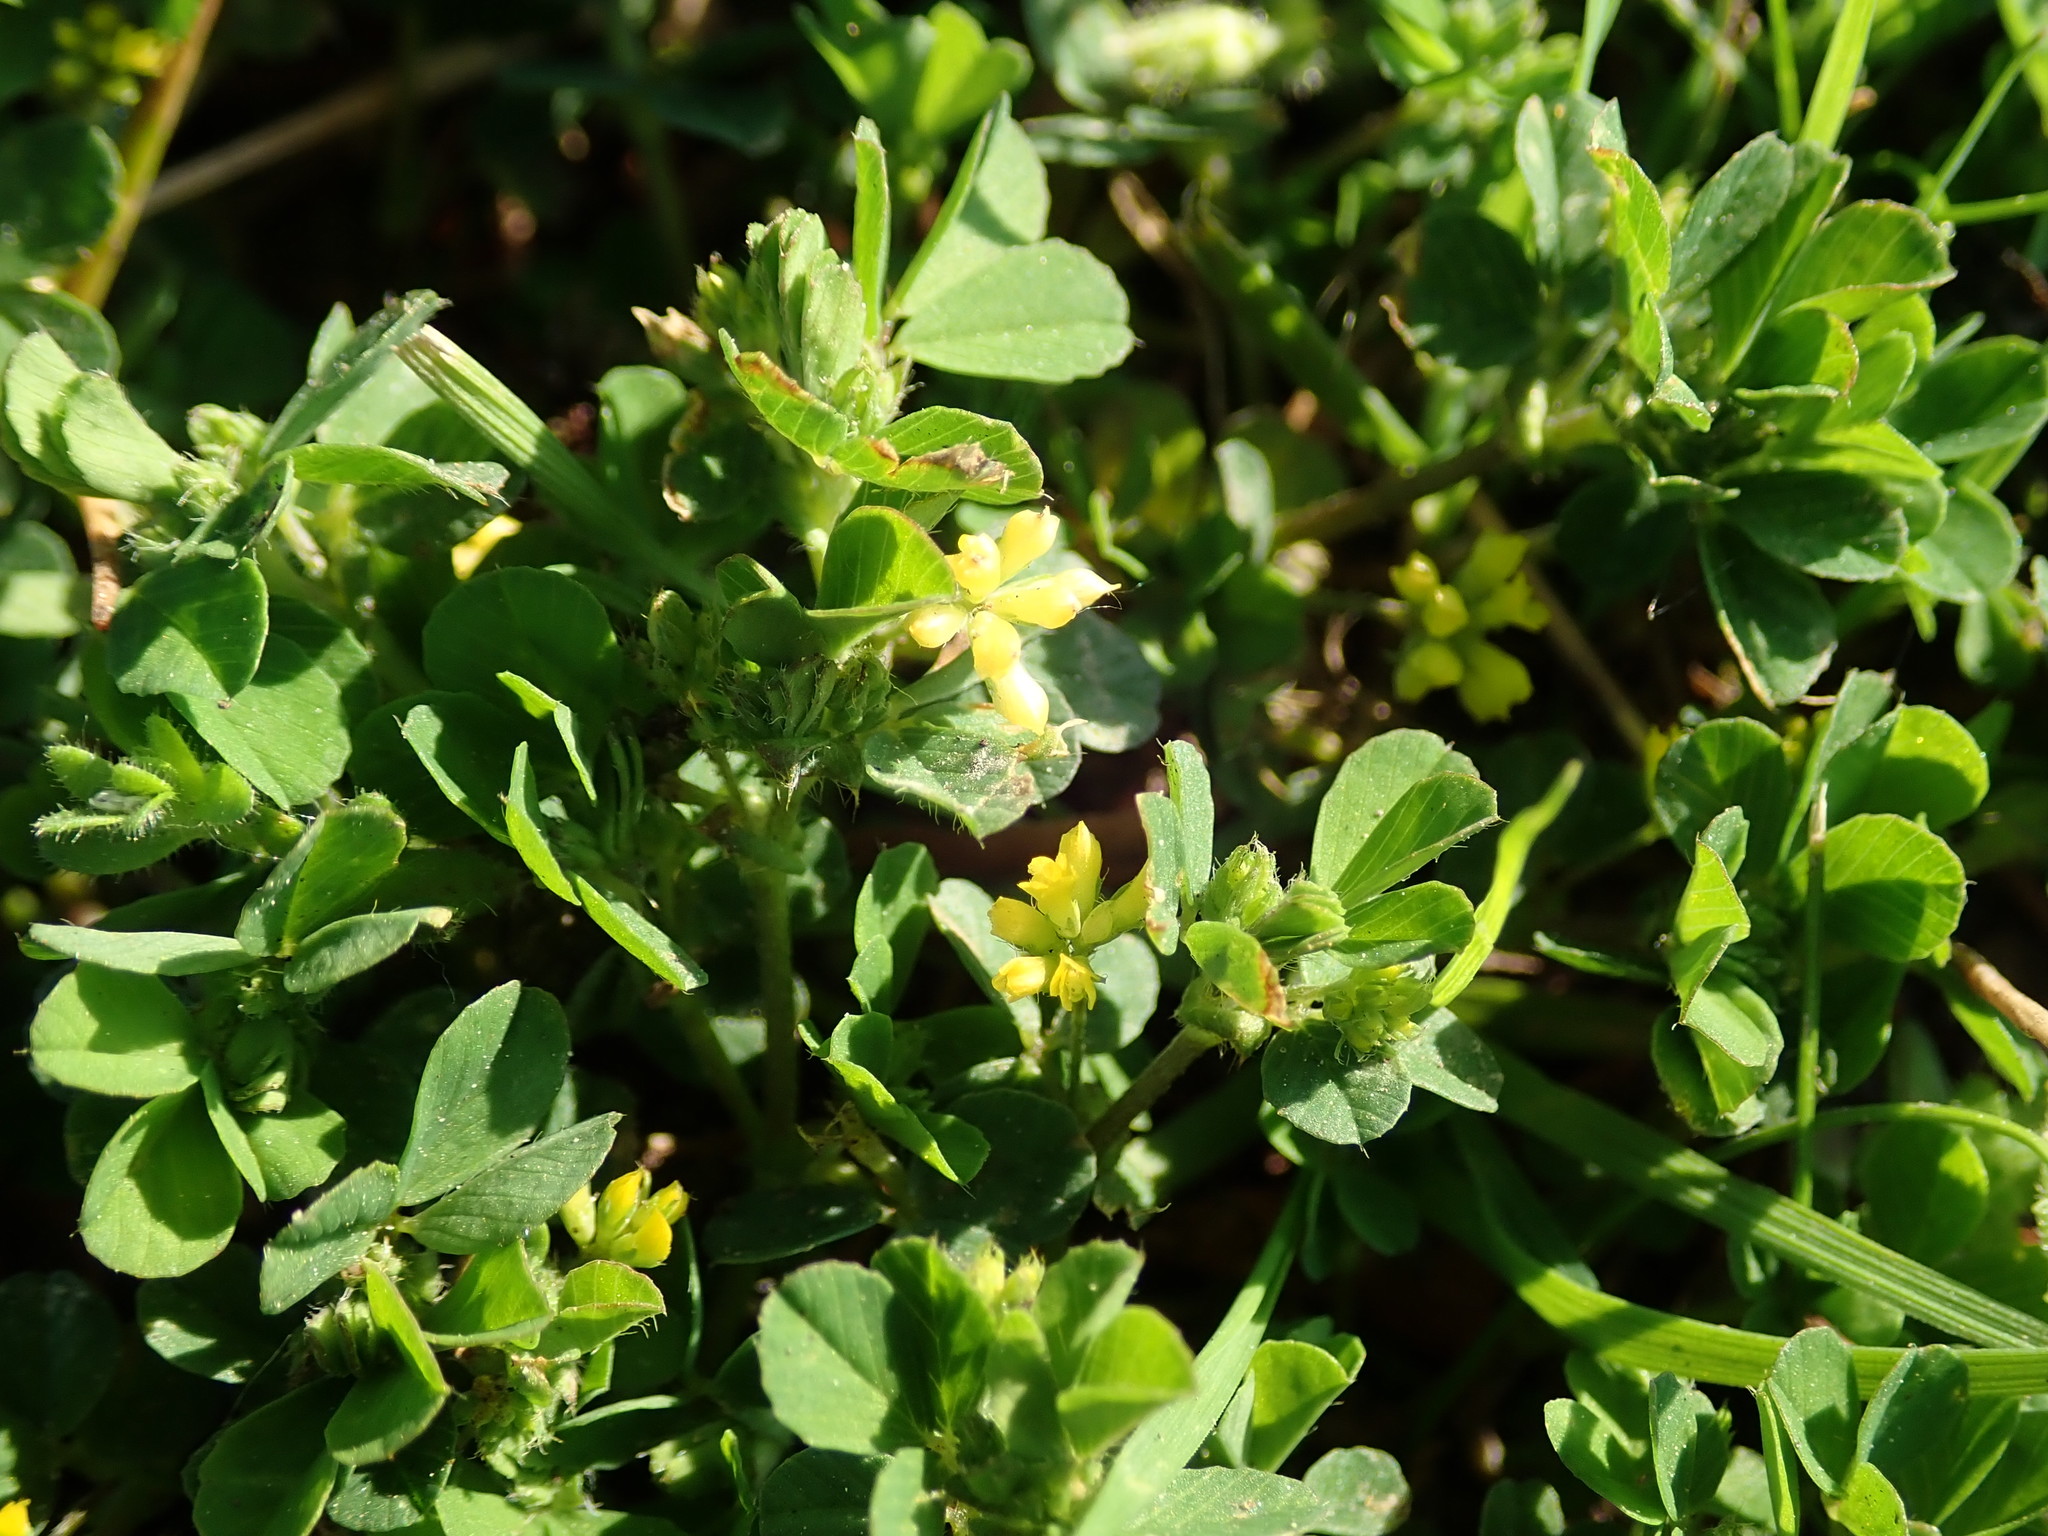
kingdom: Plantae
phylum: Tracheophyta
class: Magnoliopsida
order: Fabales
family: Fabaceae
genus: Trifolium
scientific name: Trifolium dubium
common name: Suckling clover
